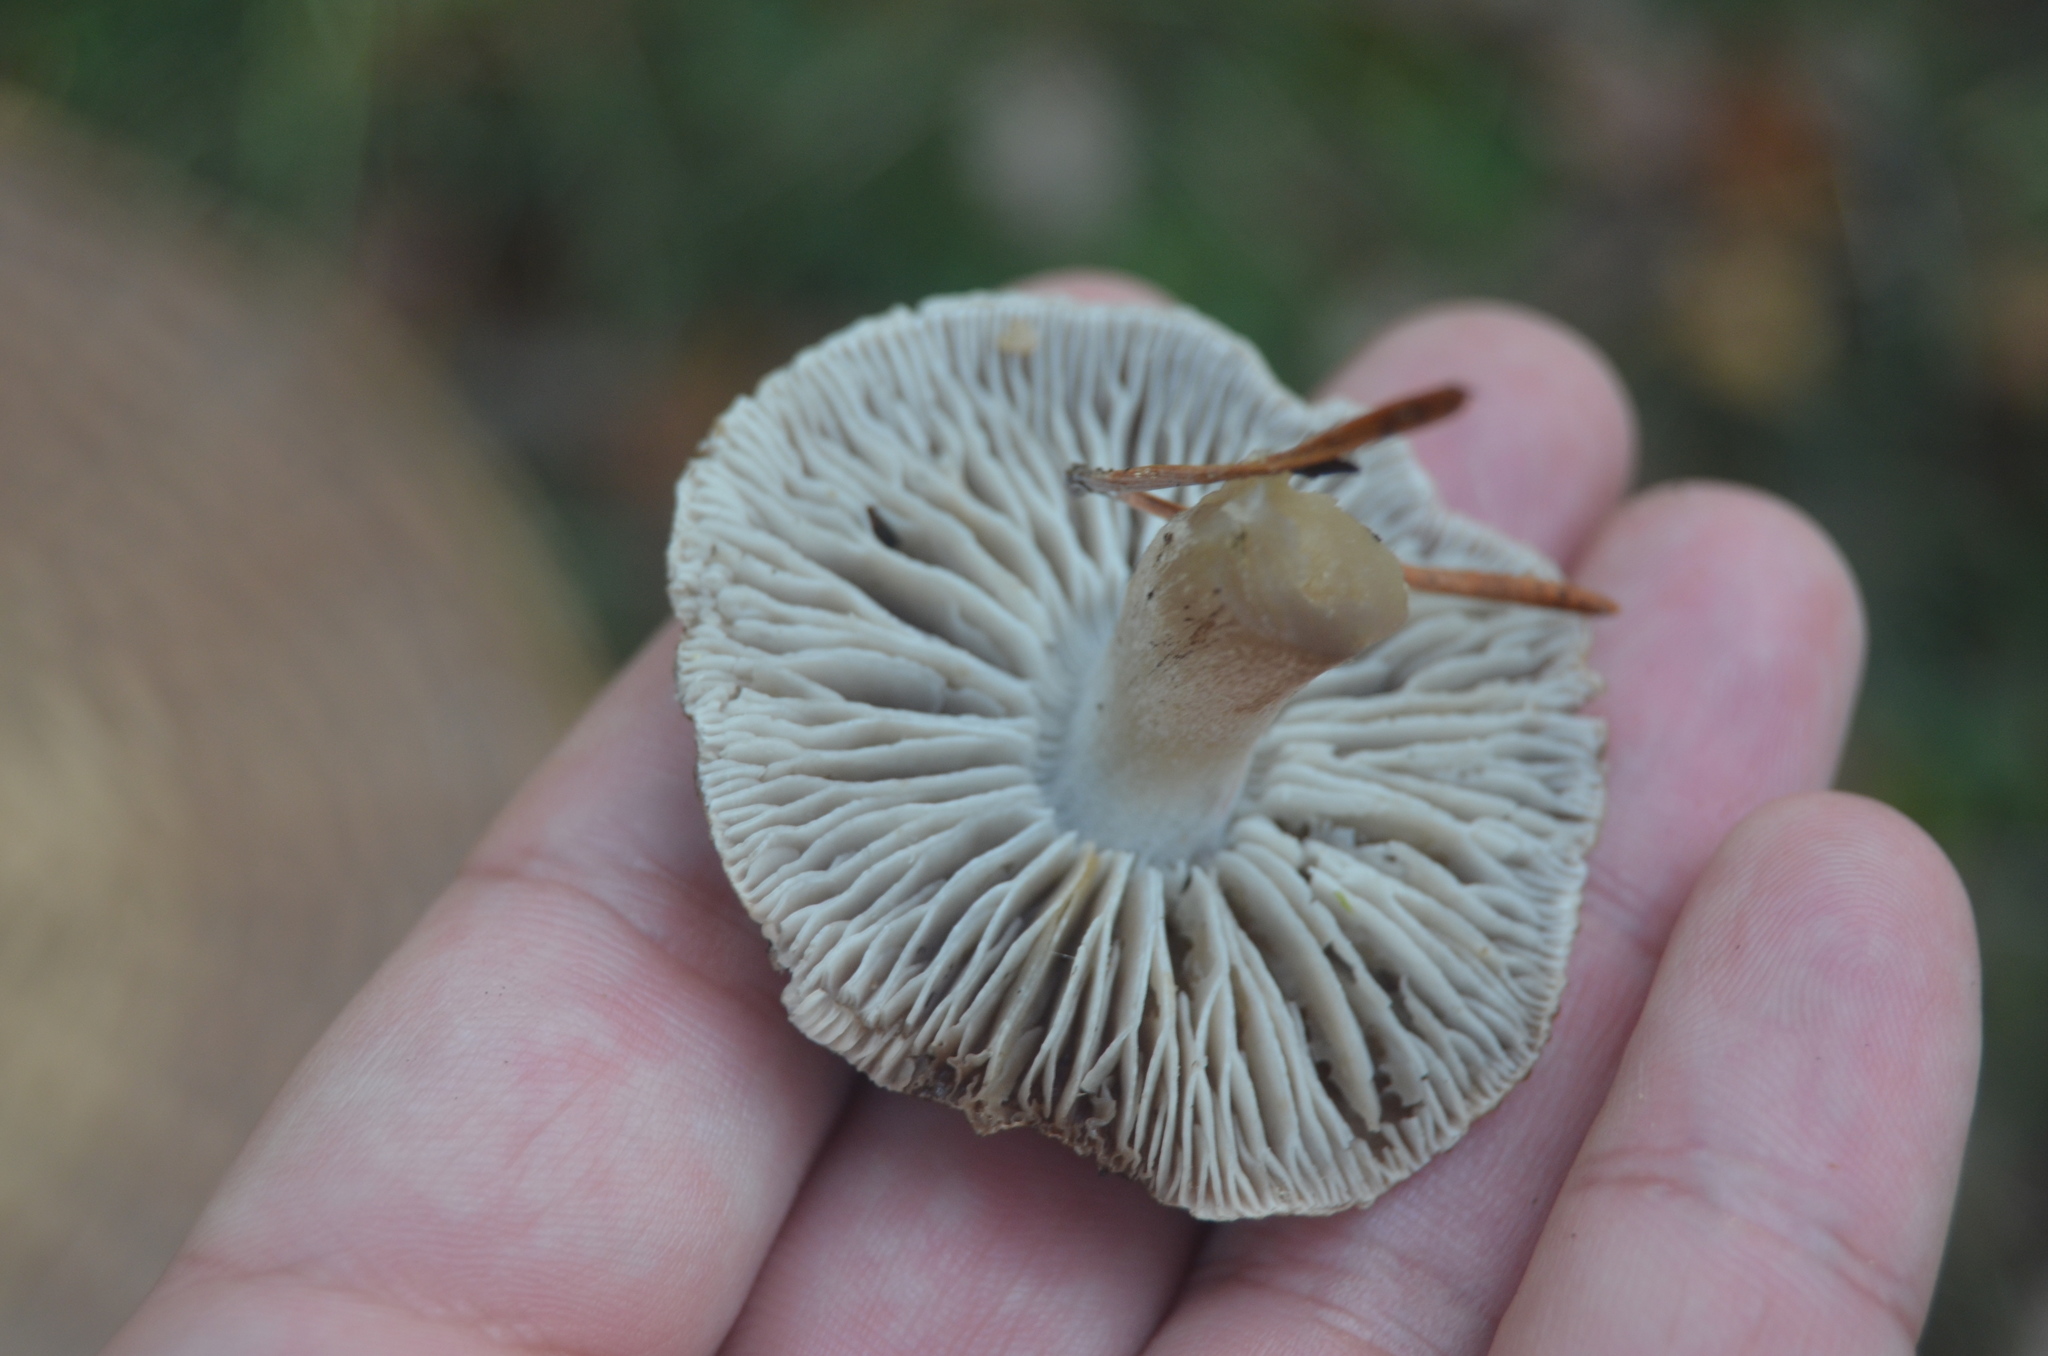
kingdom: Fungi
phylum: Basidiomycota
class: Agaricomycetes
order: Agaricales
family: Tricholomataceae
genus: Tricholoma
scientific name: Tricholoma terreum
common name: Grey knight
